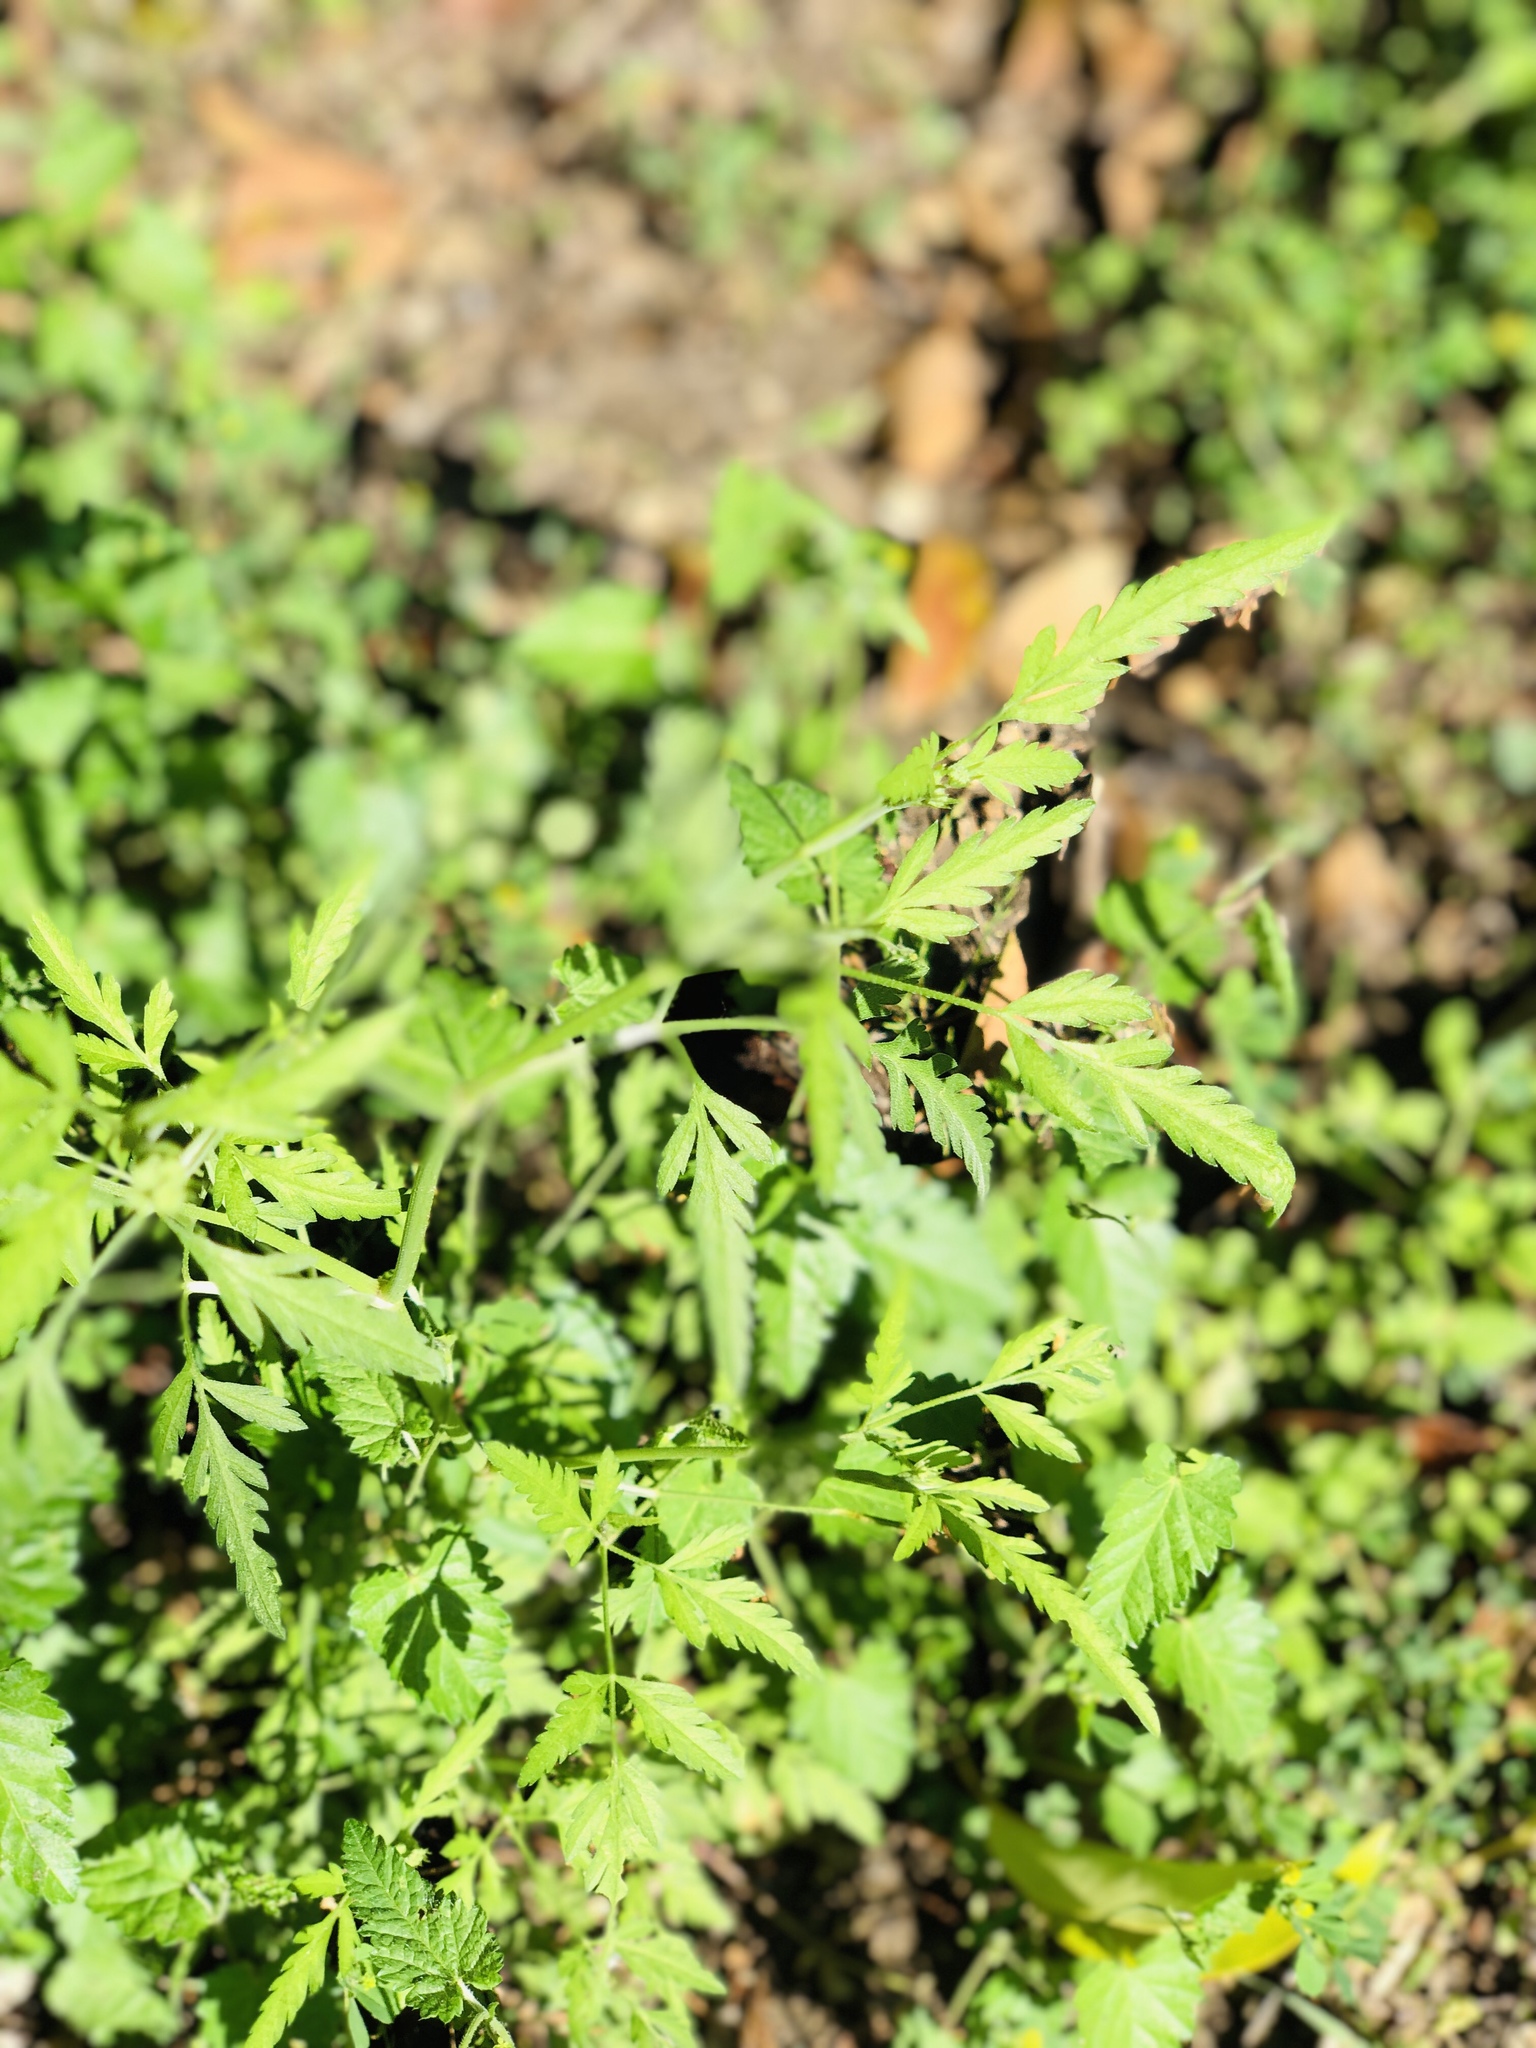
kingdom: Plantae
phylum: Tracheophyta
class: Magnoliopsida
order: Apiales
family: Apiaceae
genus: Torilis
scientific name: Torilis arvensis
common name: Spreading hedge-parsley
